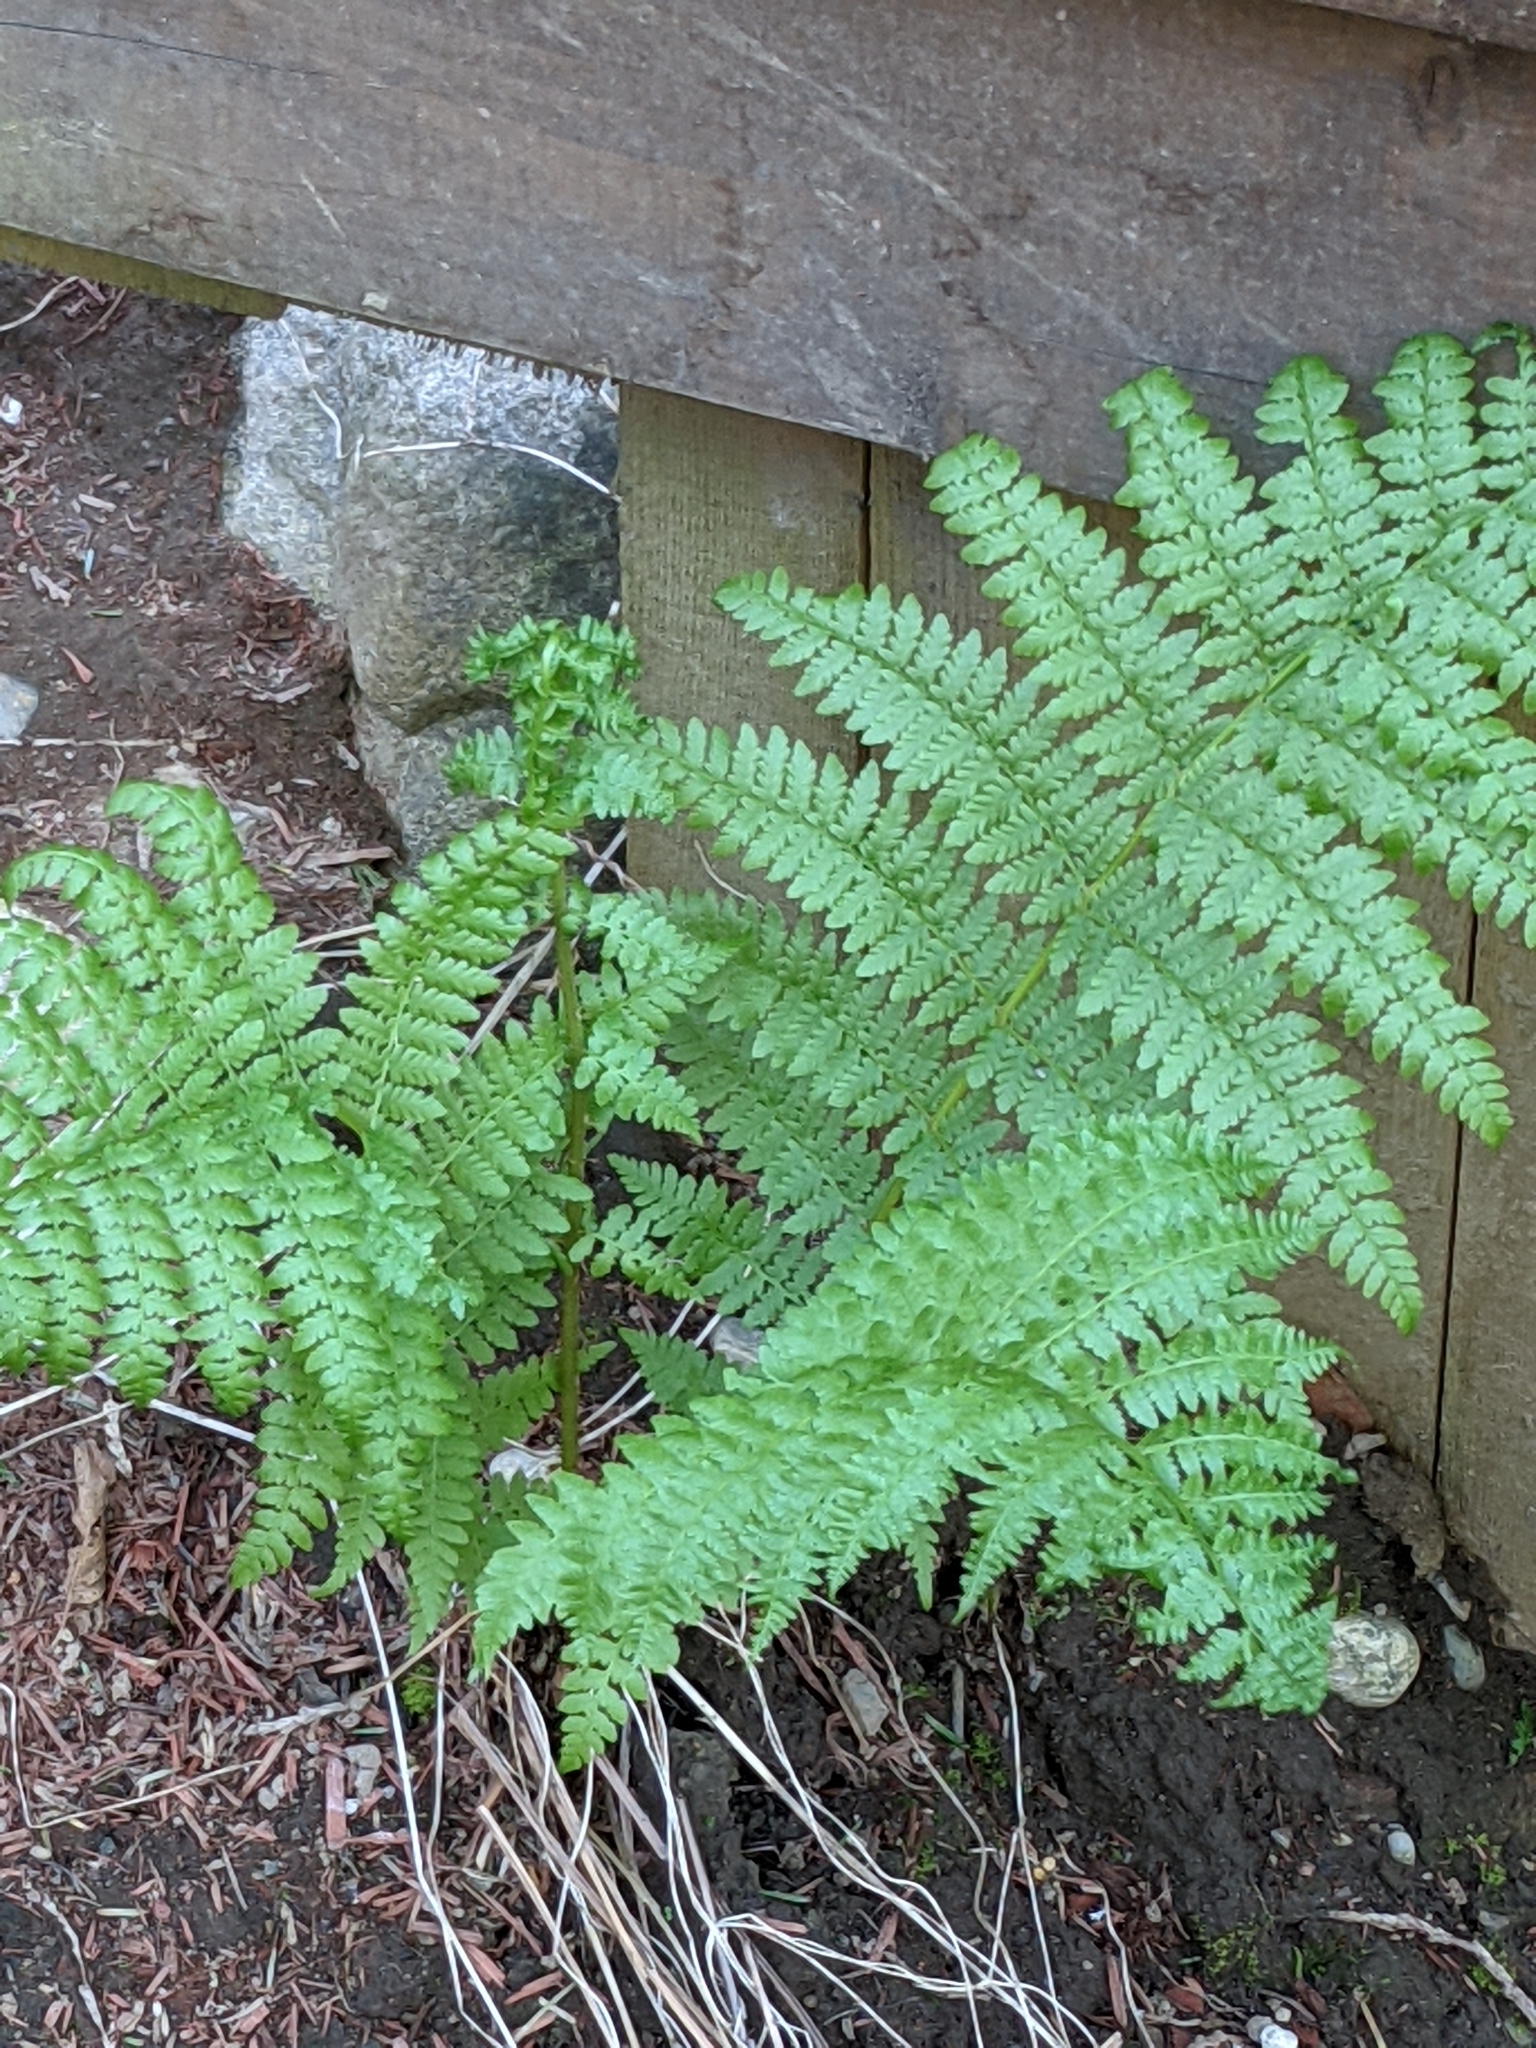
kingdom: Plantae
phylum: Tracheophyta
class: Polypodiopsida
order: Polypodiales
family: Athyriaceae
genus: Athyrium
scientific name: Athyrium filix-femina
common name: Lady fern
